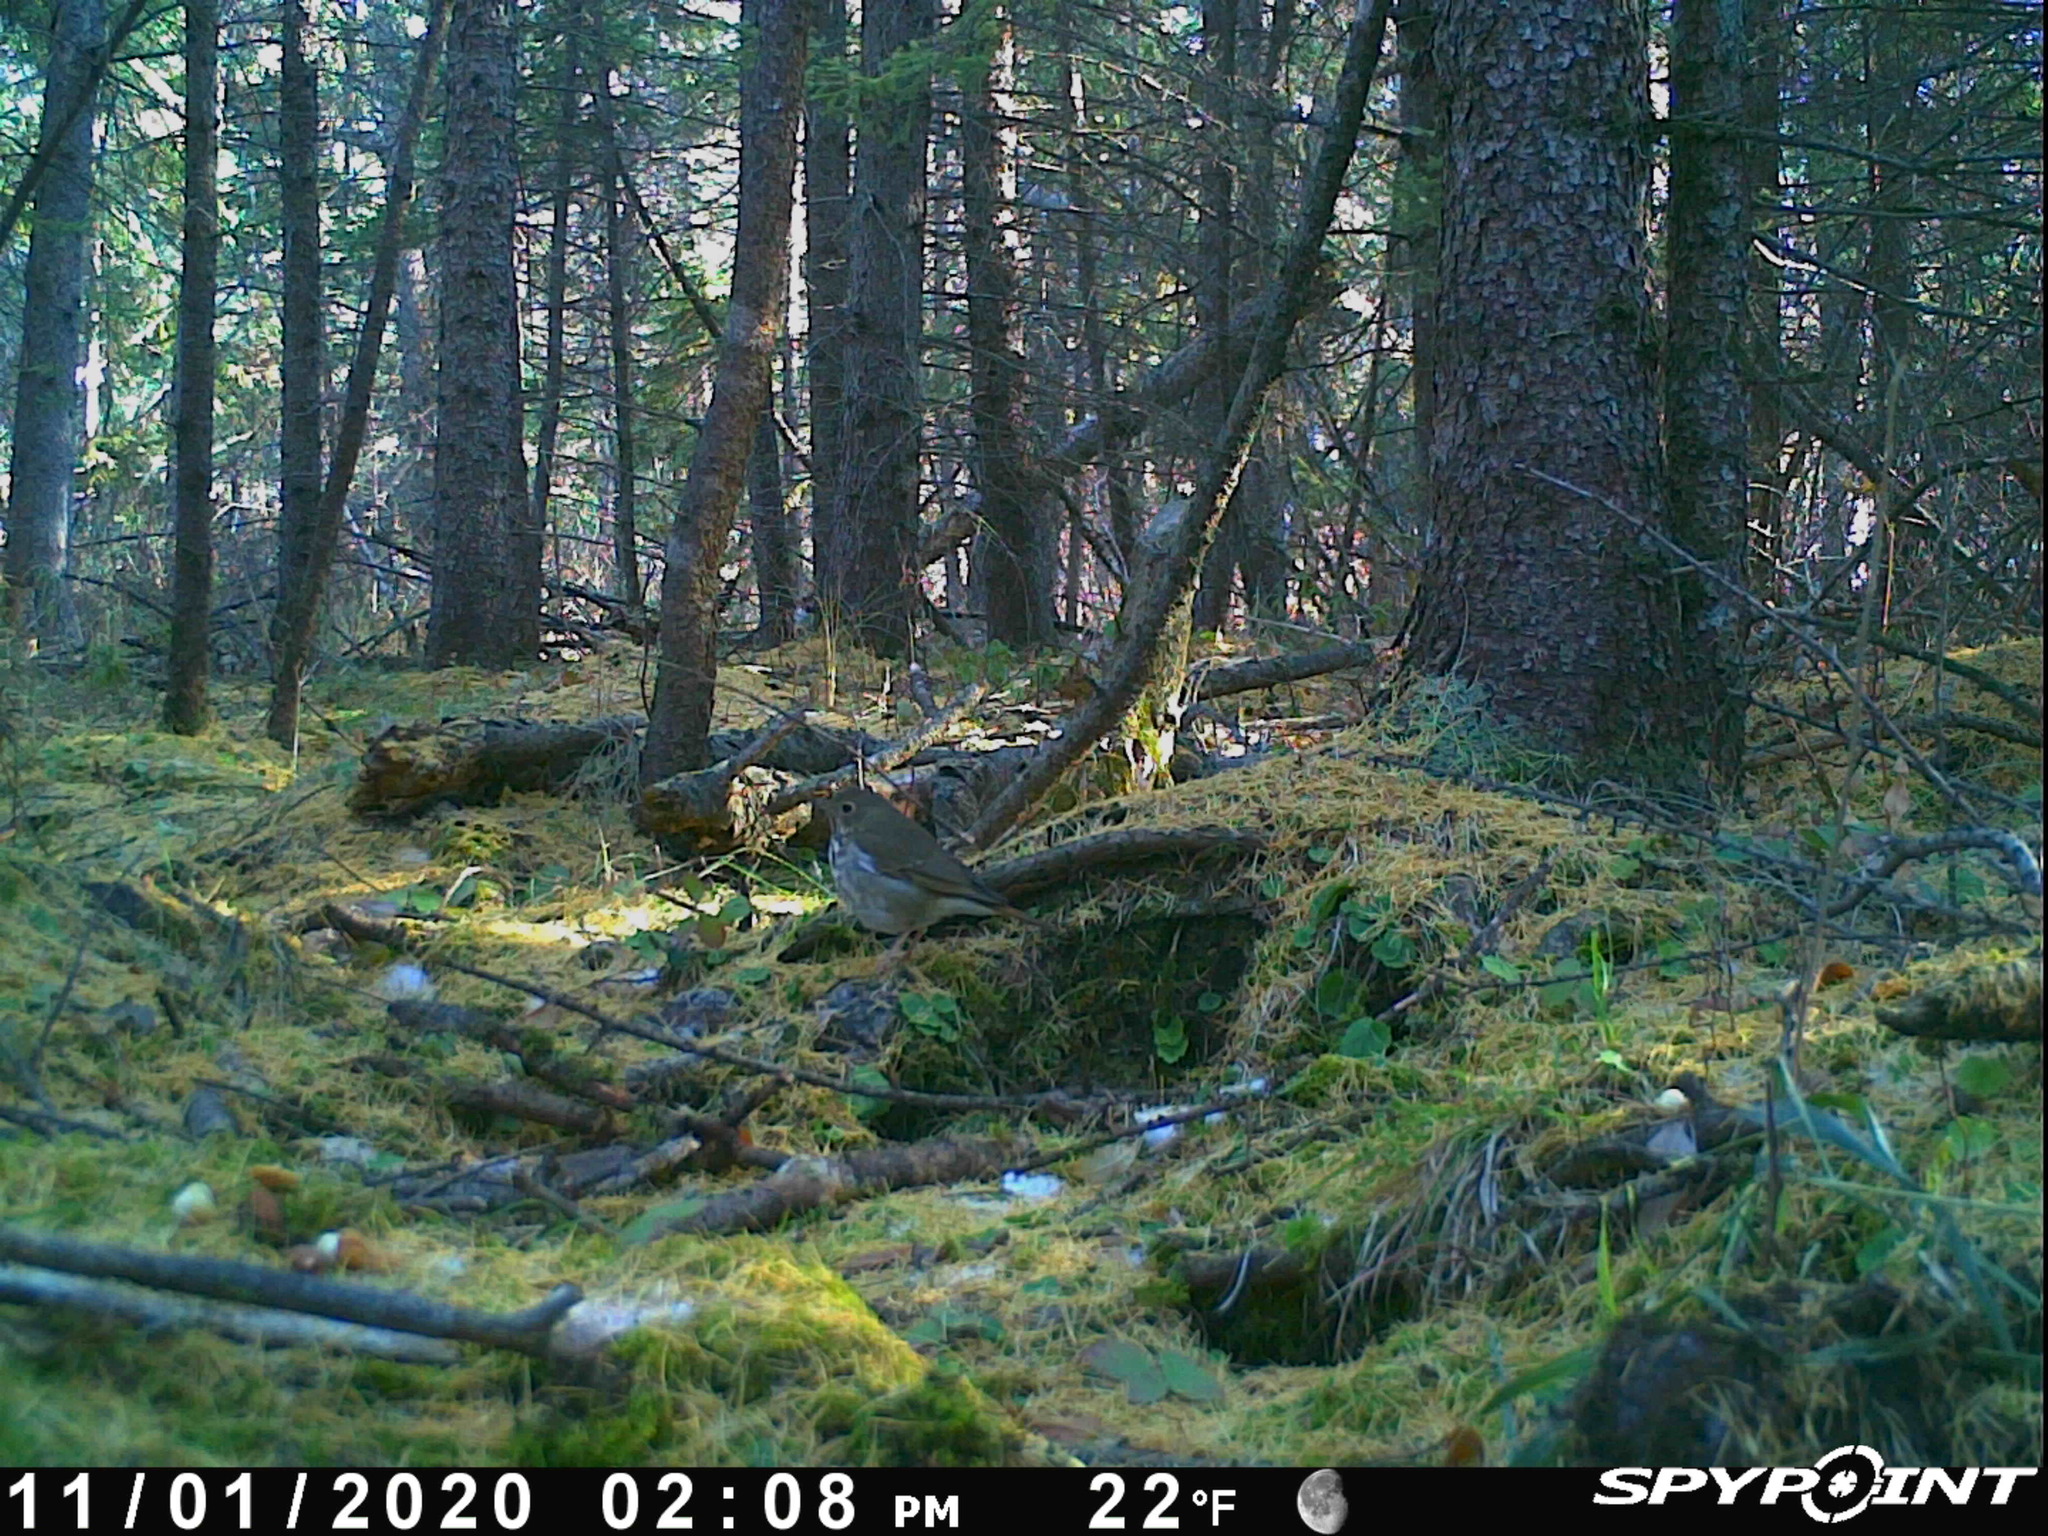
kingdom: Animalia
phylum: Chordata
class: Aves
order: Passeriformes
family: Turdidae
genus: Catharus
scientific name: Catharus guttatus
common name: Hermit thrush
